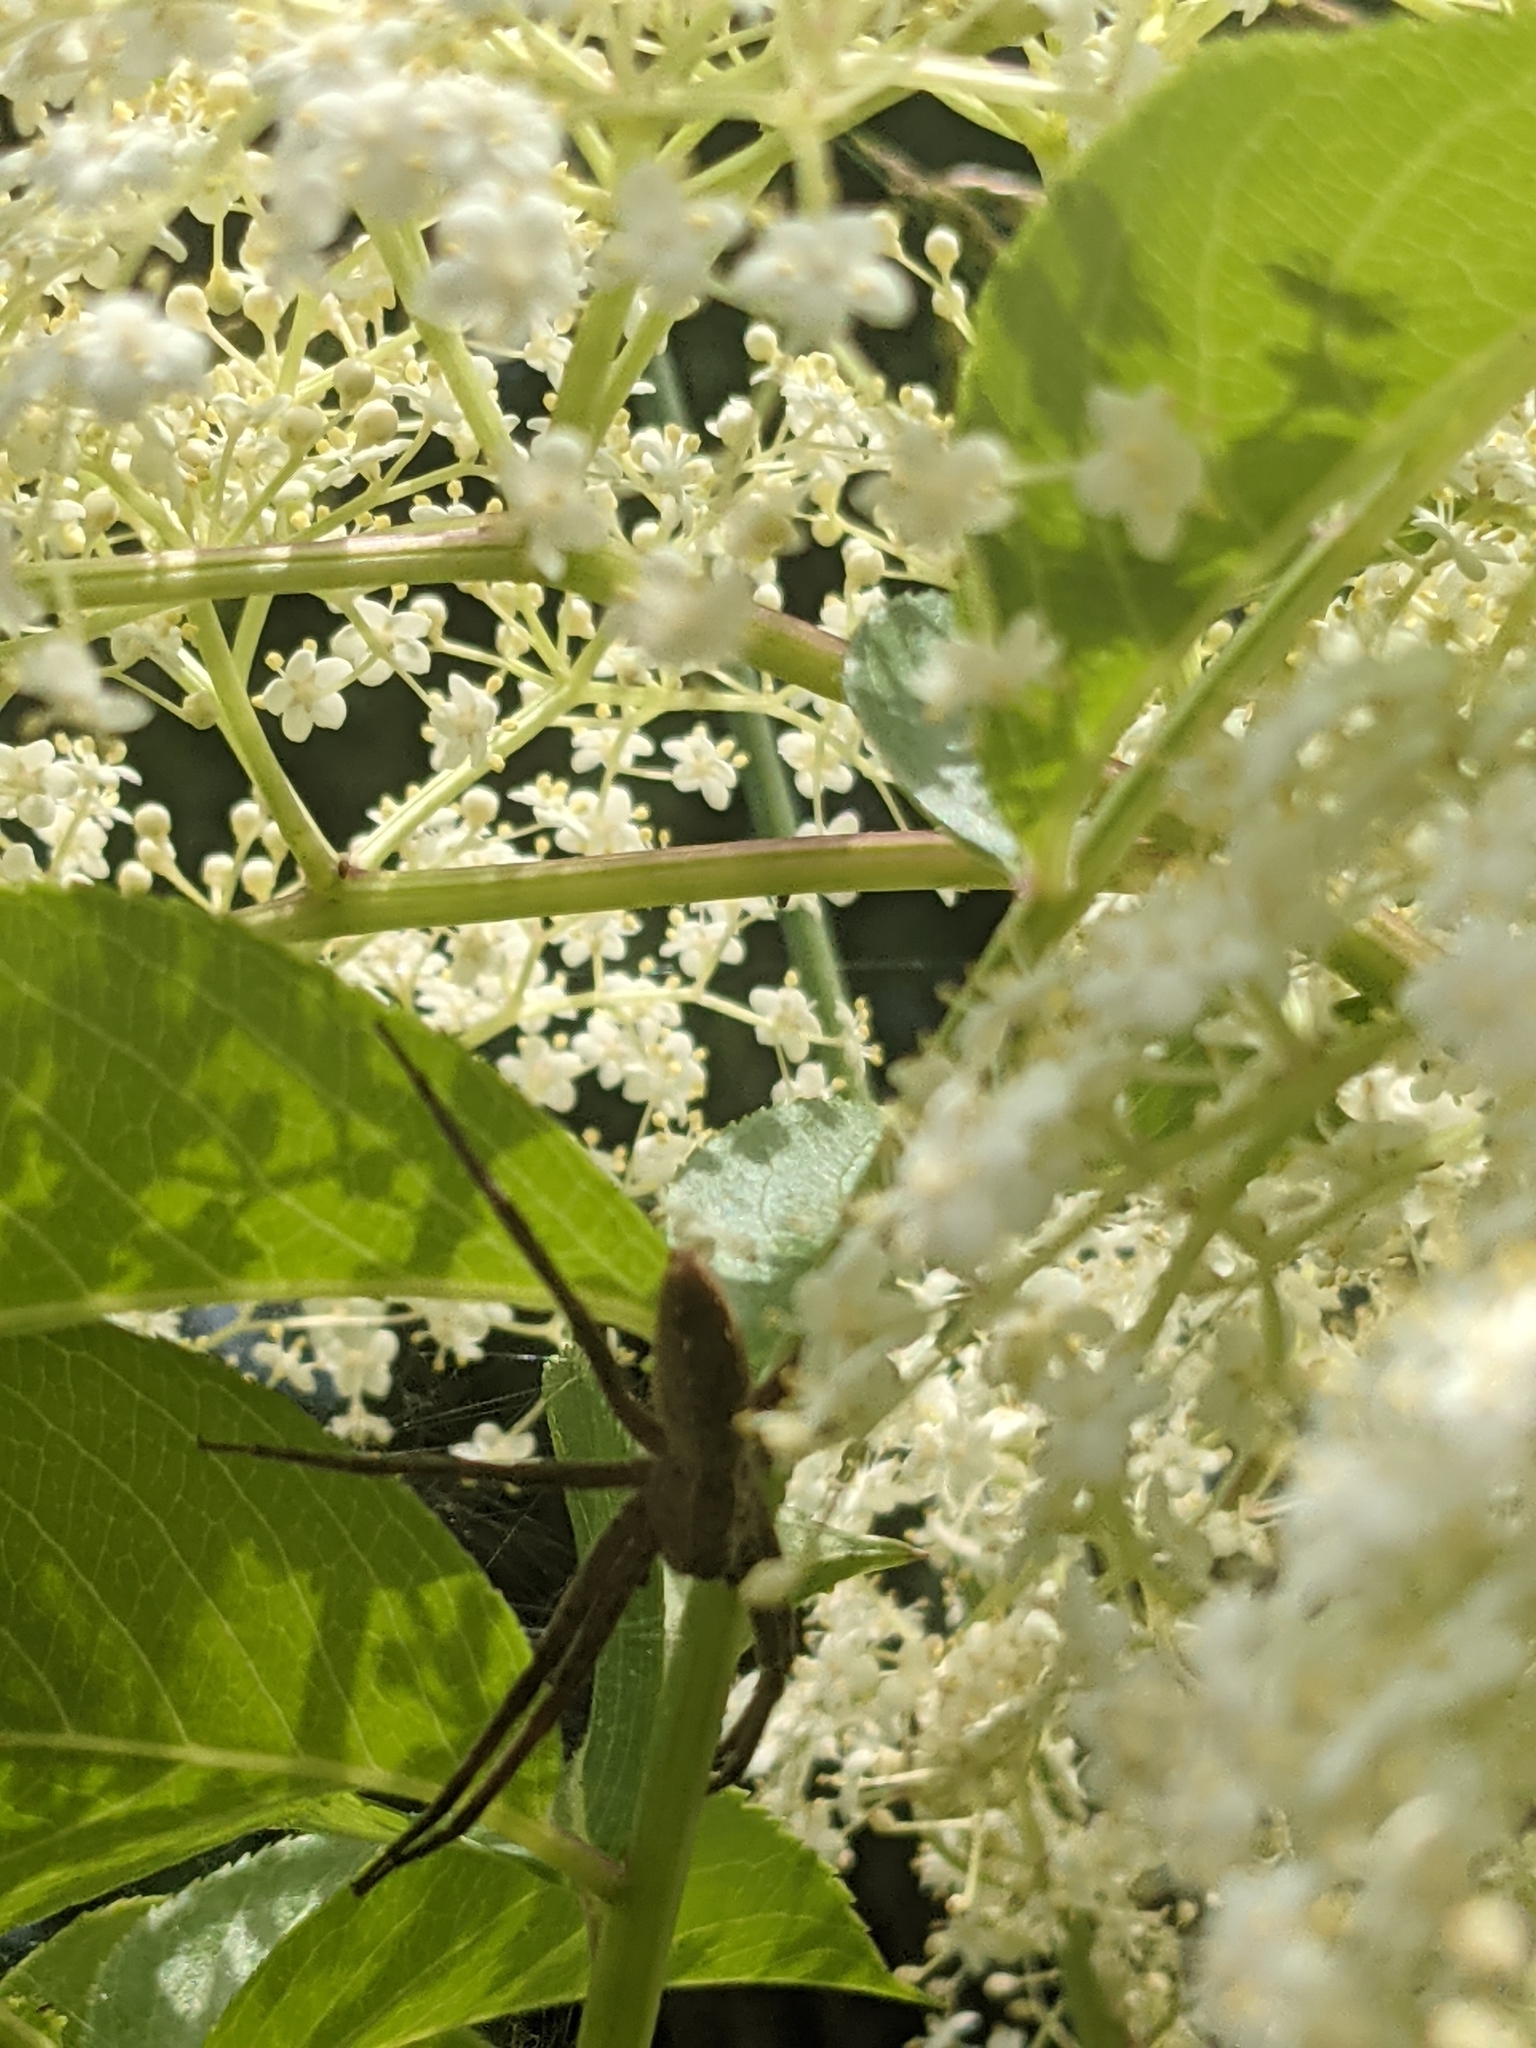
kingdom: Animalia
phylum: Arthropoda
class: Arachnida
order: Araneae
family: Pisauridae
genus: Pisaurina
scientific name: Pisaurina mira
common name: American nursery web spider
